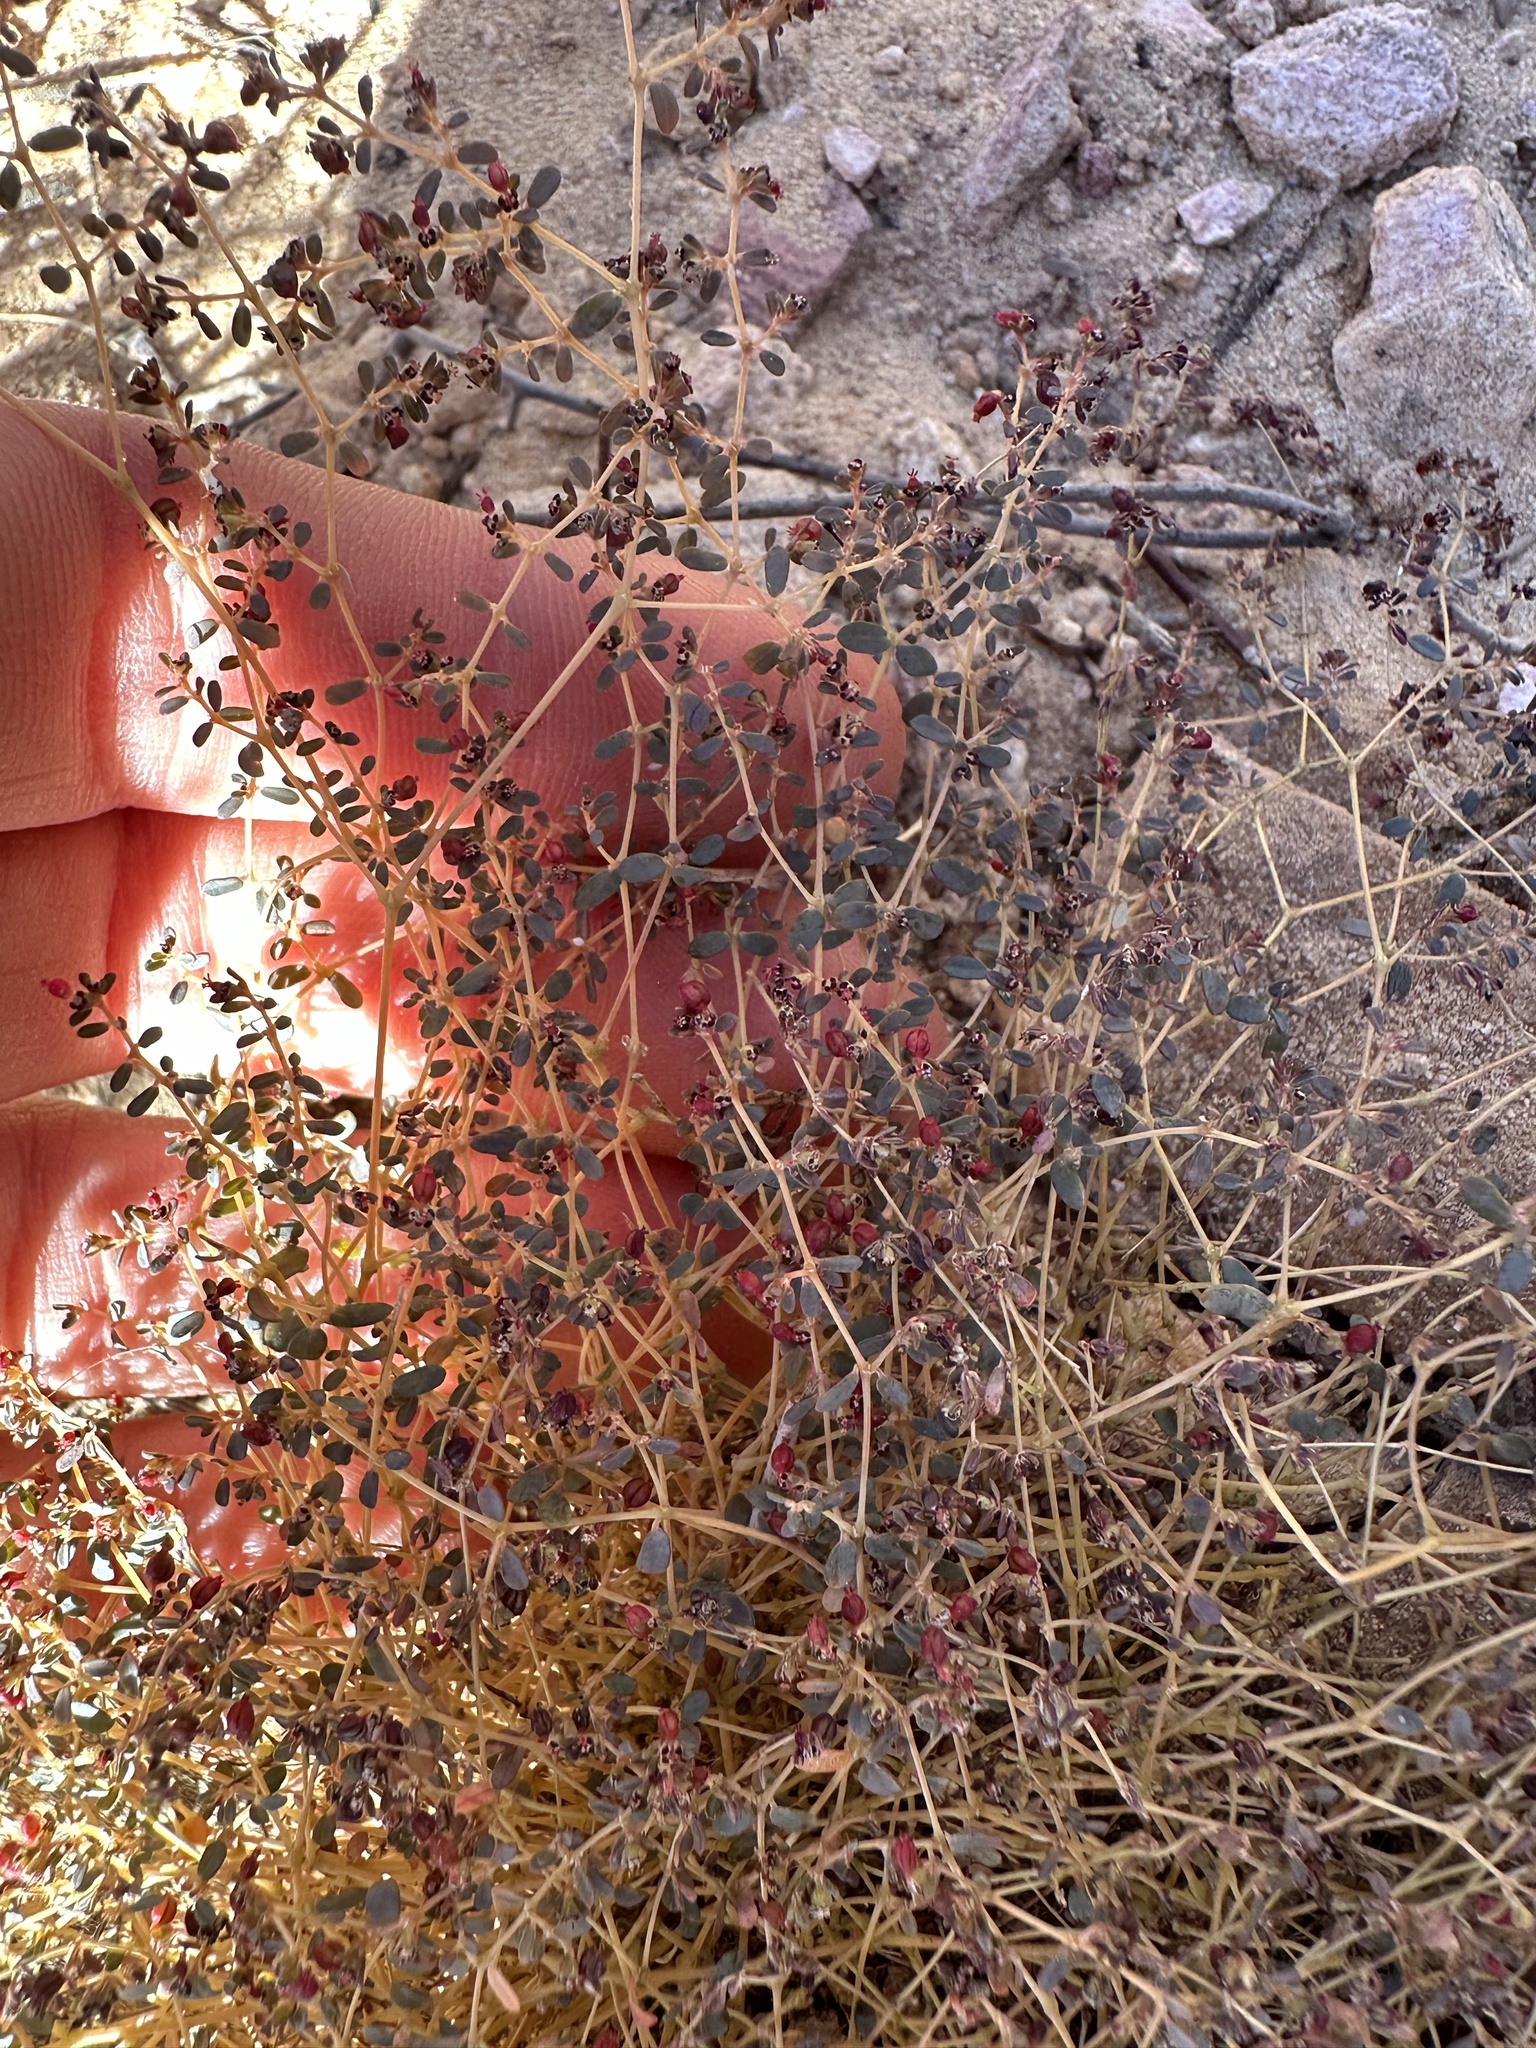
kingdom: Plantae
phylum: Tracheophyta
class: Magnoliopsida
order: Malpighiales
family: Euphorbiaceae
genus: Euphorbia
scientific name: Euphorbia polycarpa
